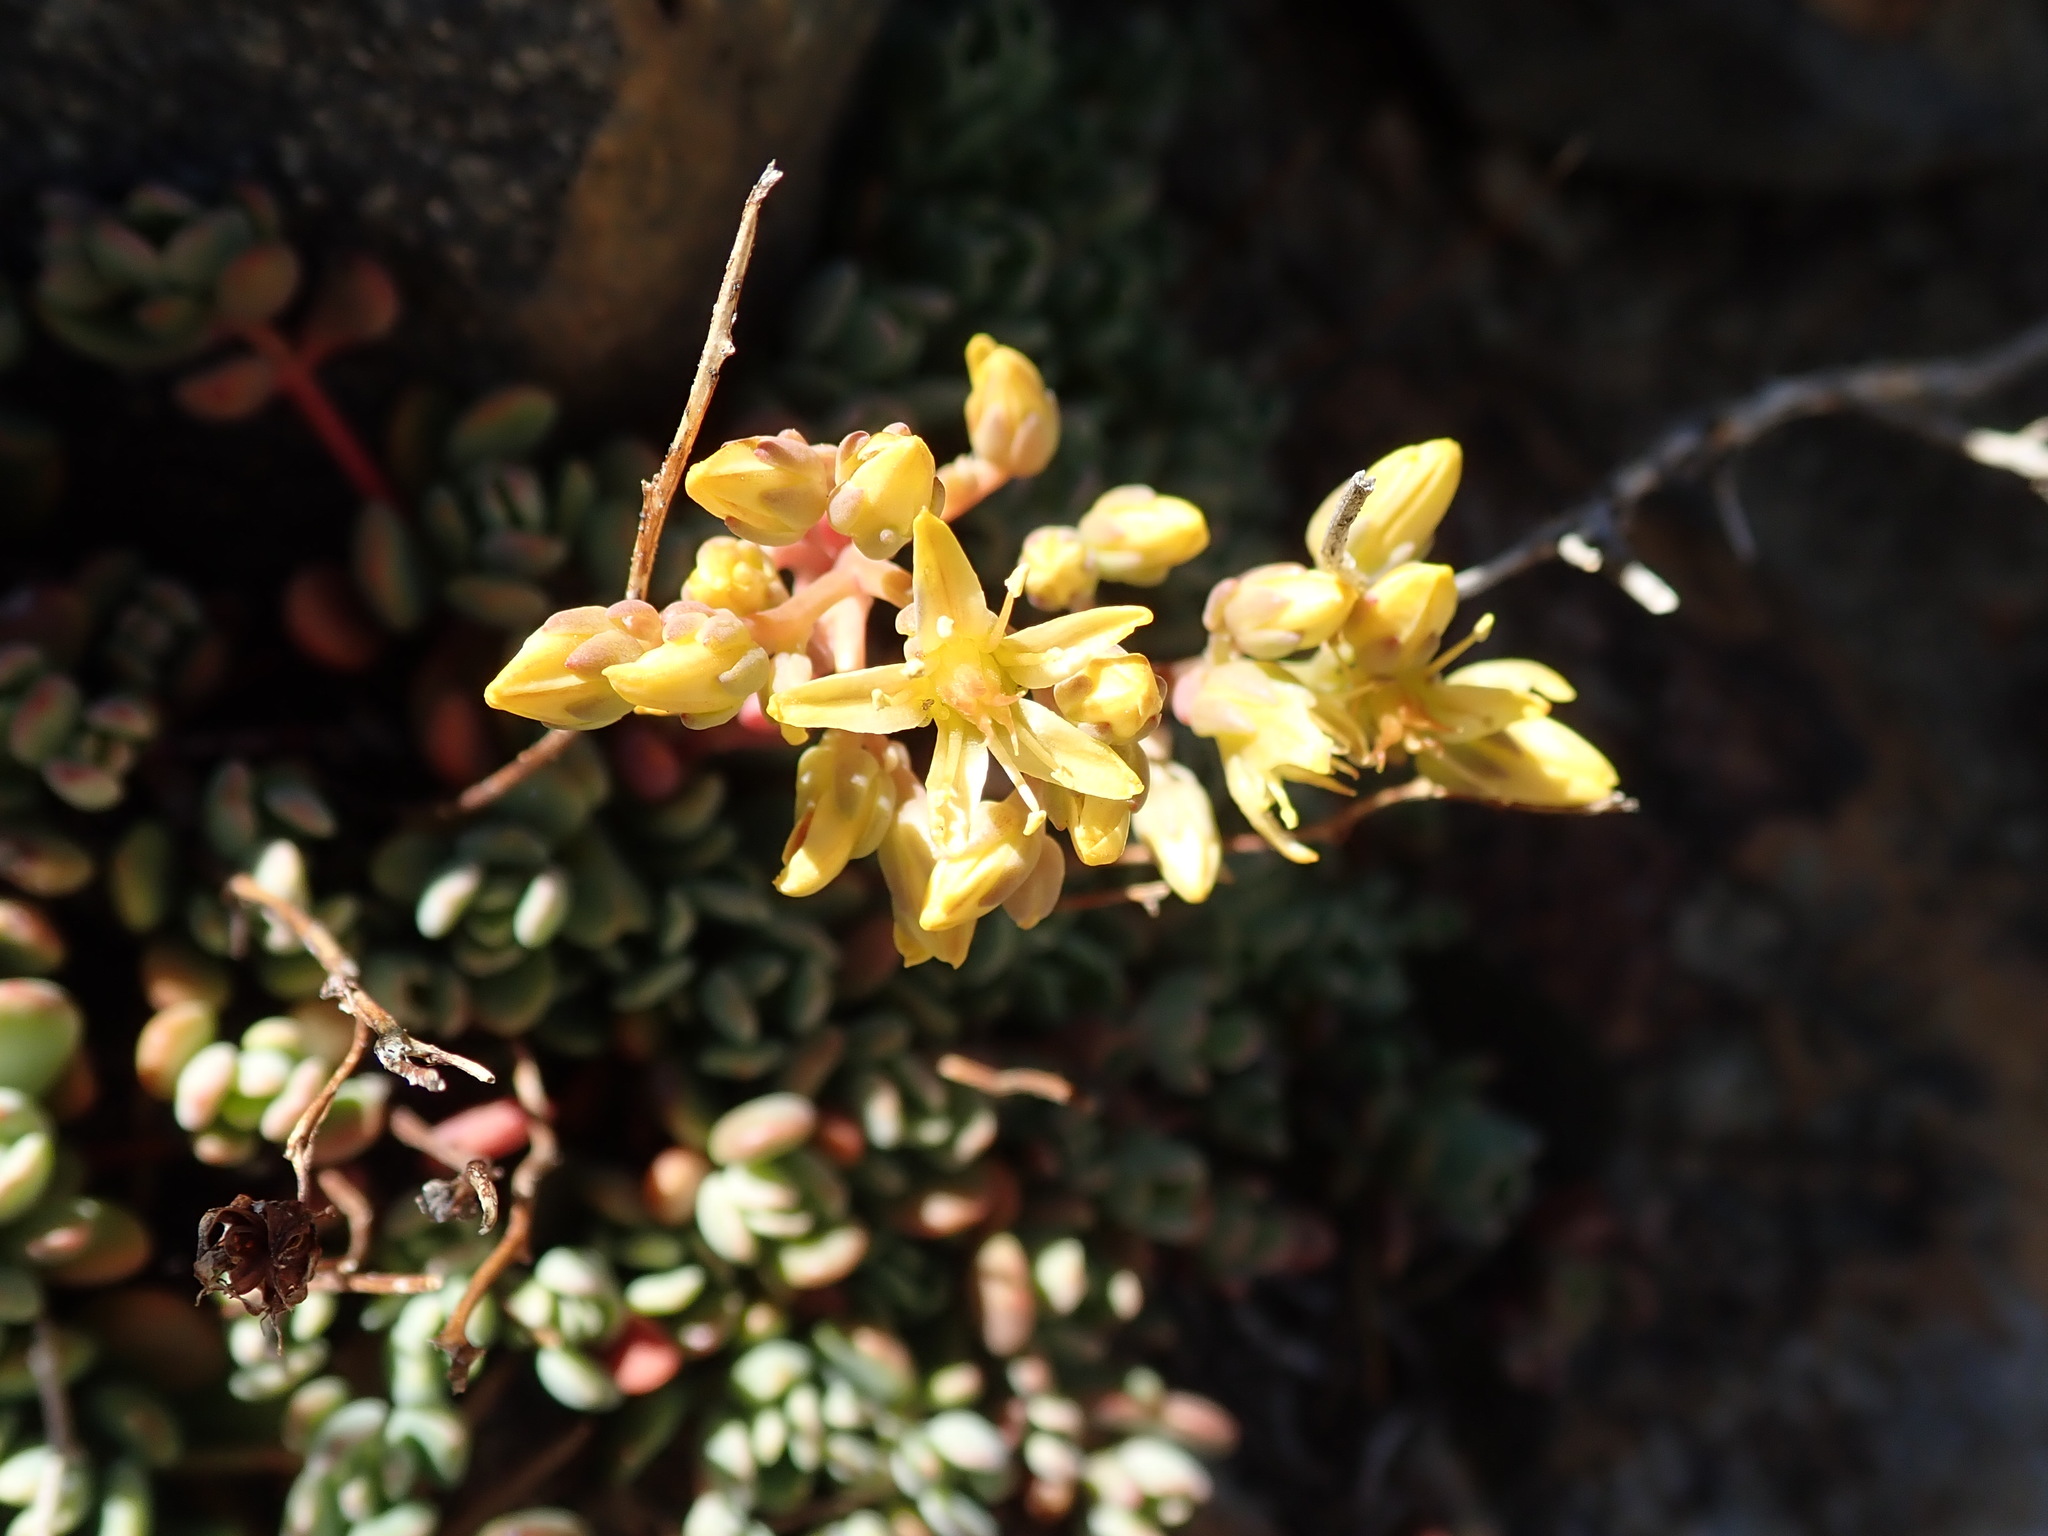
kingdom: Plantae
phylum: Tracheophyta
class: Magnoliopsida
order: Saxifragales
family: Crassulaceae
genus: Sedum
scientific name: Sedum obtusatum
